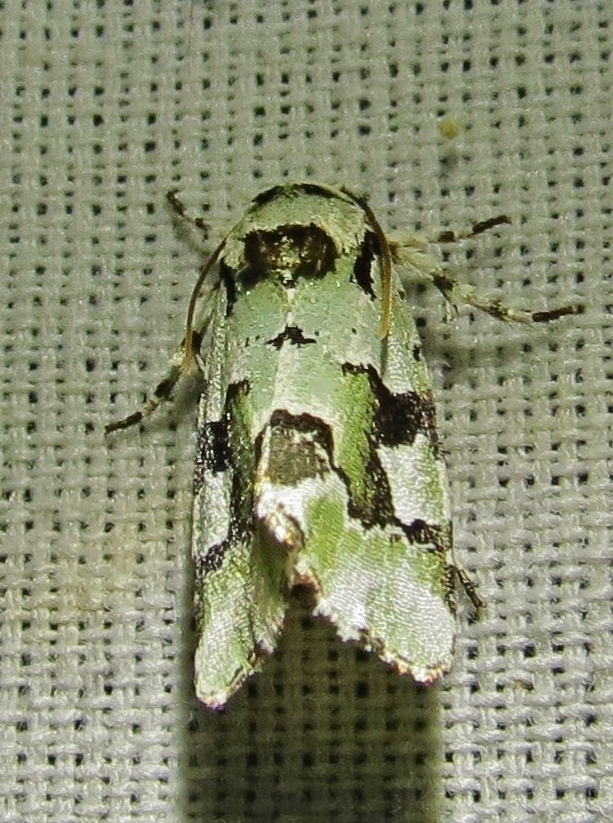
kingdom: Animalia
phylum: Arthropoda
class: Insecta
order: Lepidoptera
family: Noctuidae
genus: Emarginea
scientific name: Emarginea percara
